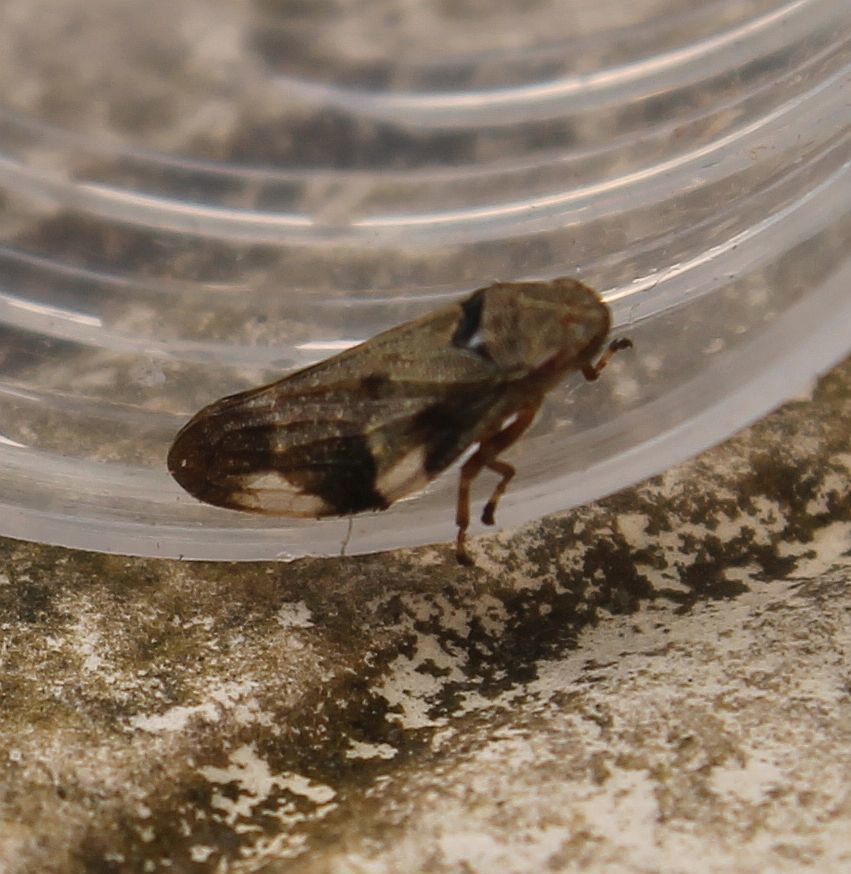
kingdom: Animalia
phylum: Arthropoda
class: Insecta
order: Hemiptera
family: Aphrophoridae
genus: Aphrophora
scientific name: Aphrophora alni
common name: European alder spittlebug
